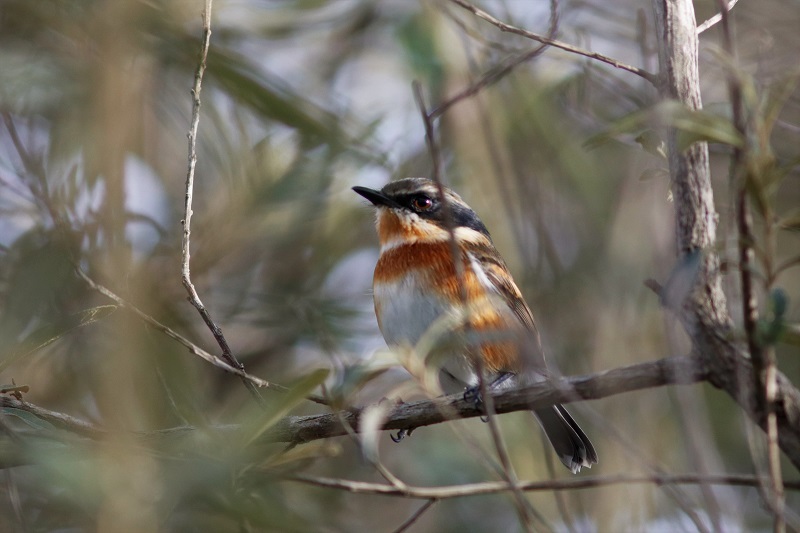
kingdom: Animalia
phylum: Chordata
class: Aves
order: Passeriformes
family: Platysteiridae
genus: Batis
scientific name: Batis capensis
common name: Cape batis
